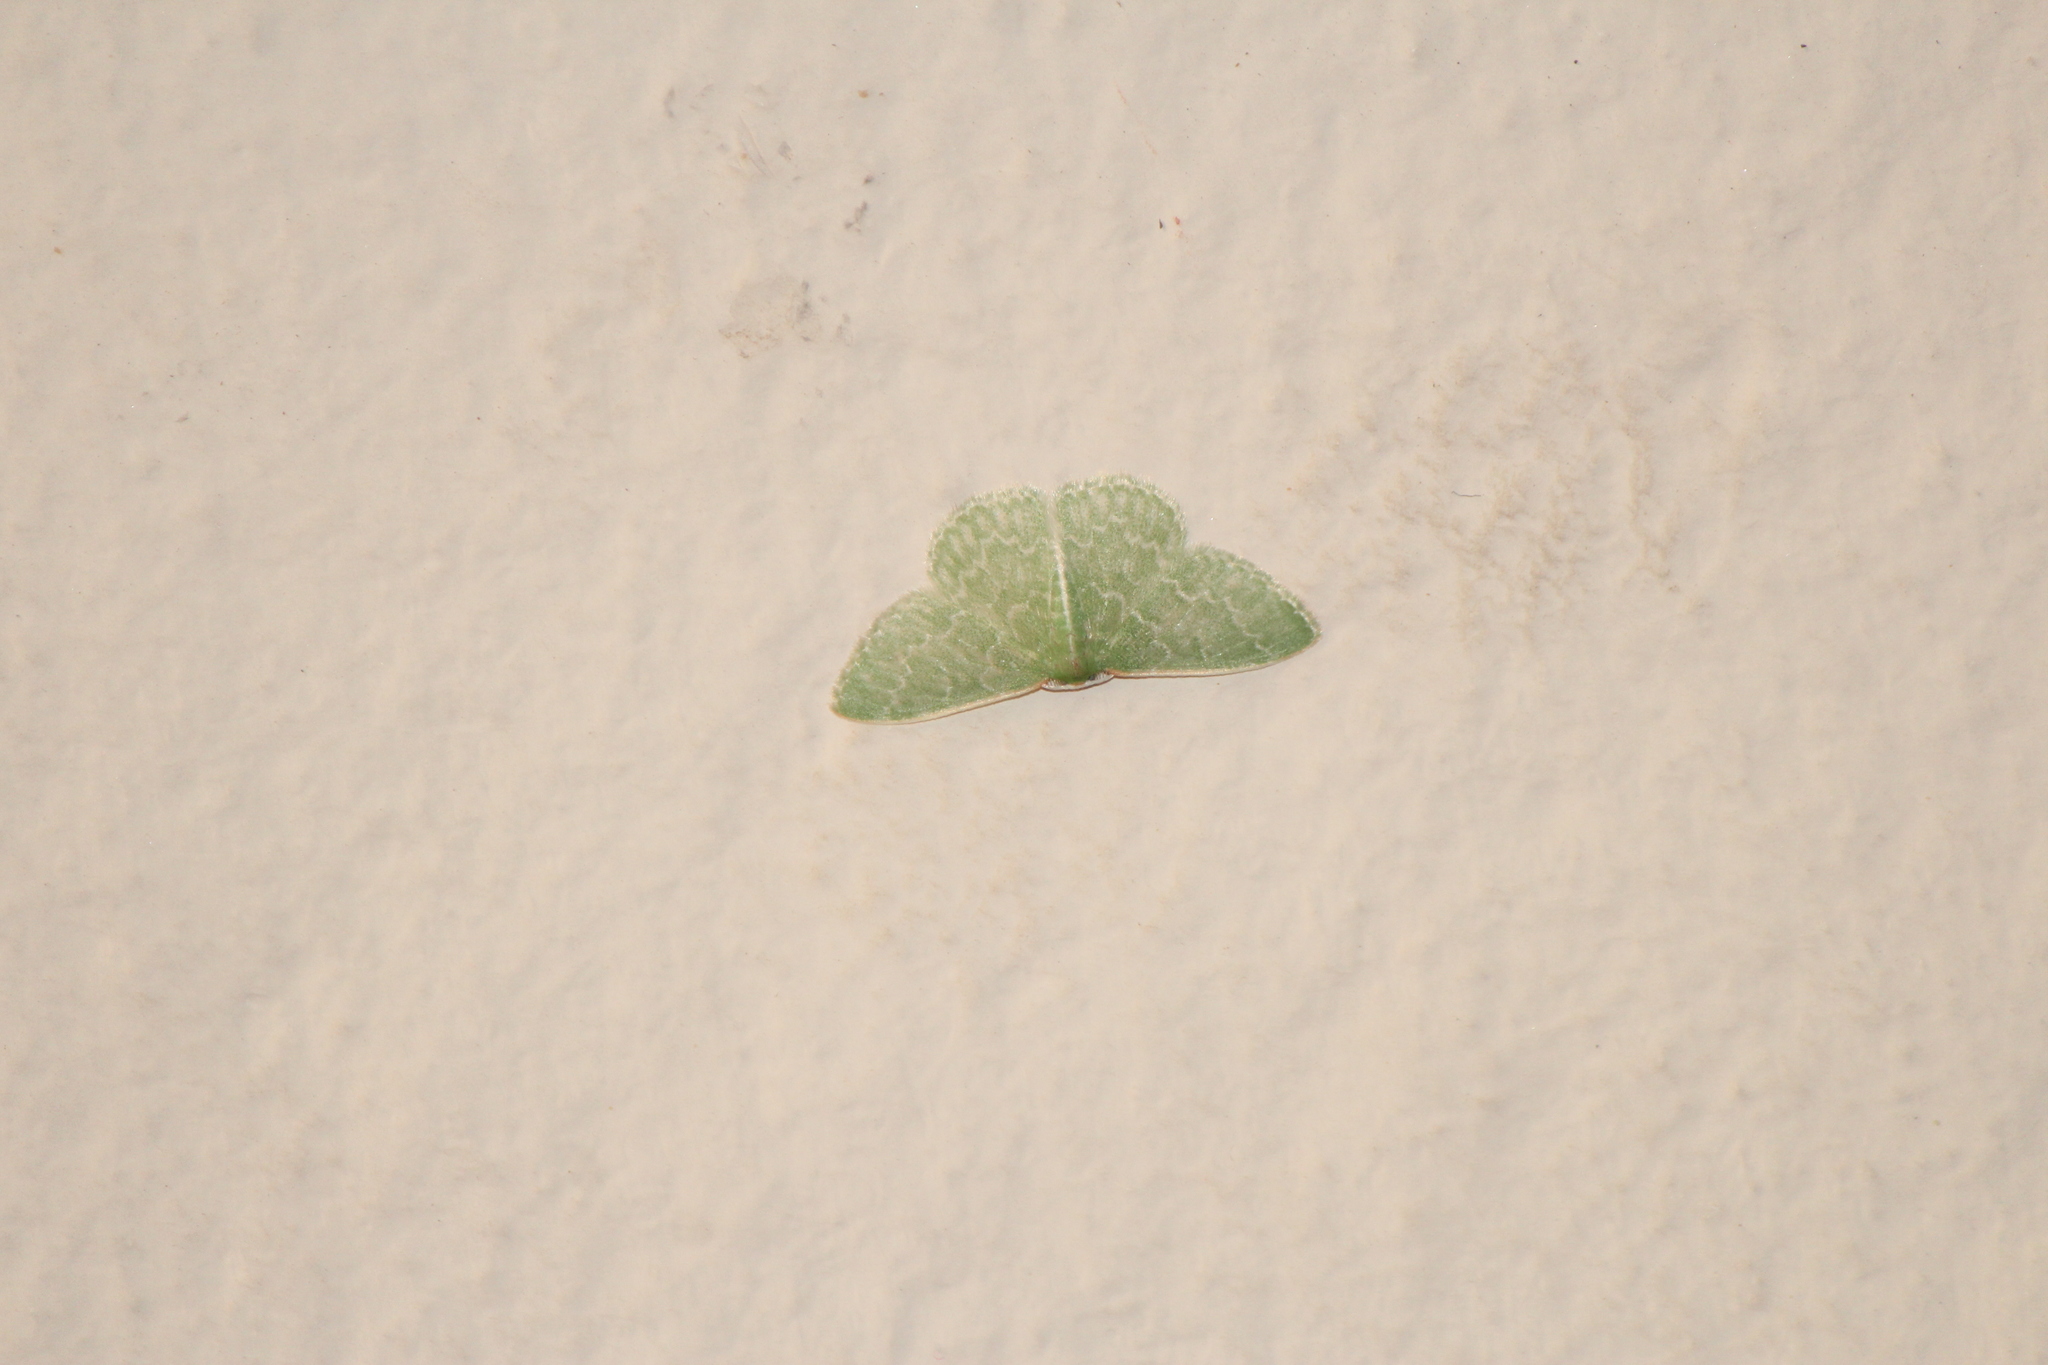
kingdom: Animalia
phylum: Arthropoda
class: Insecta
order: Lepidoptera
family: Geometridae
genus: Synchlora
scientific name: Synchlora frondaria
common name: Southern emerald
